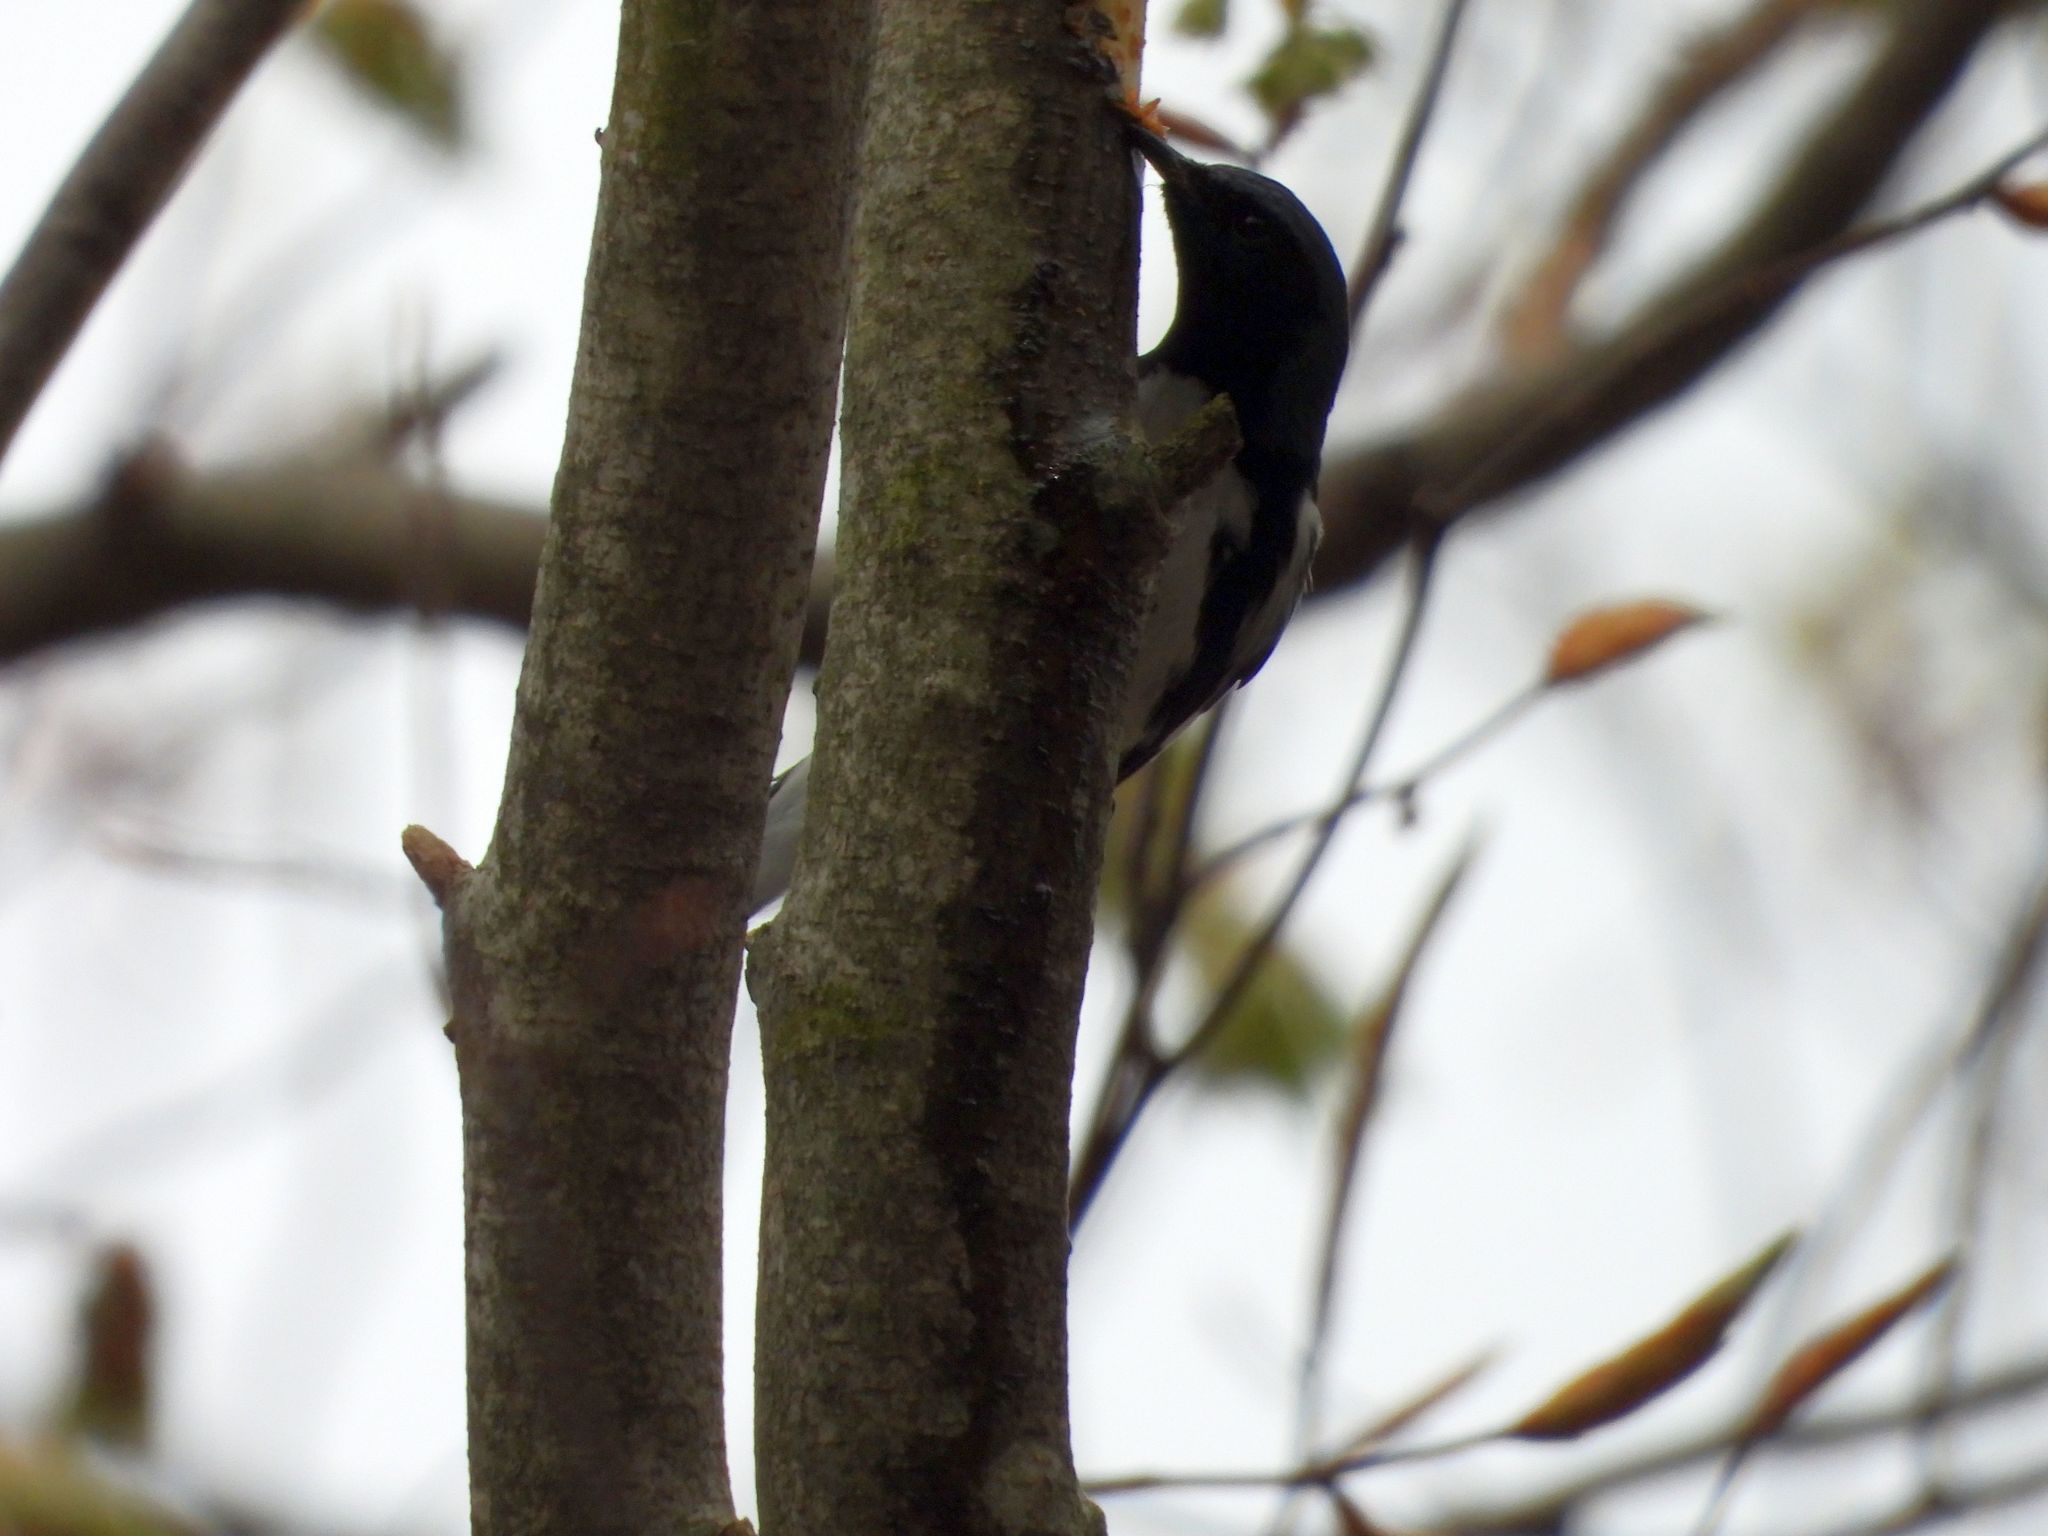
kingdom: Animalia
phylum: Chordata
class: Aves
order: Passeriformes
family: Parulidae
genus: Setophaga
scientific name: Setophaga caerulescens
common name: Black-throated blue warbler
